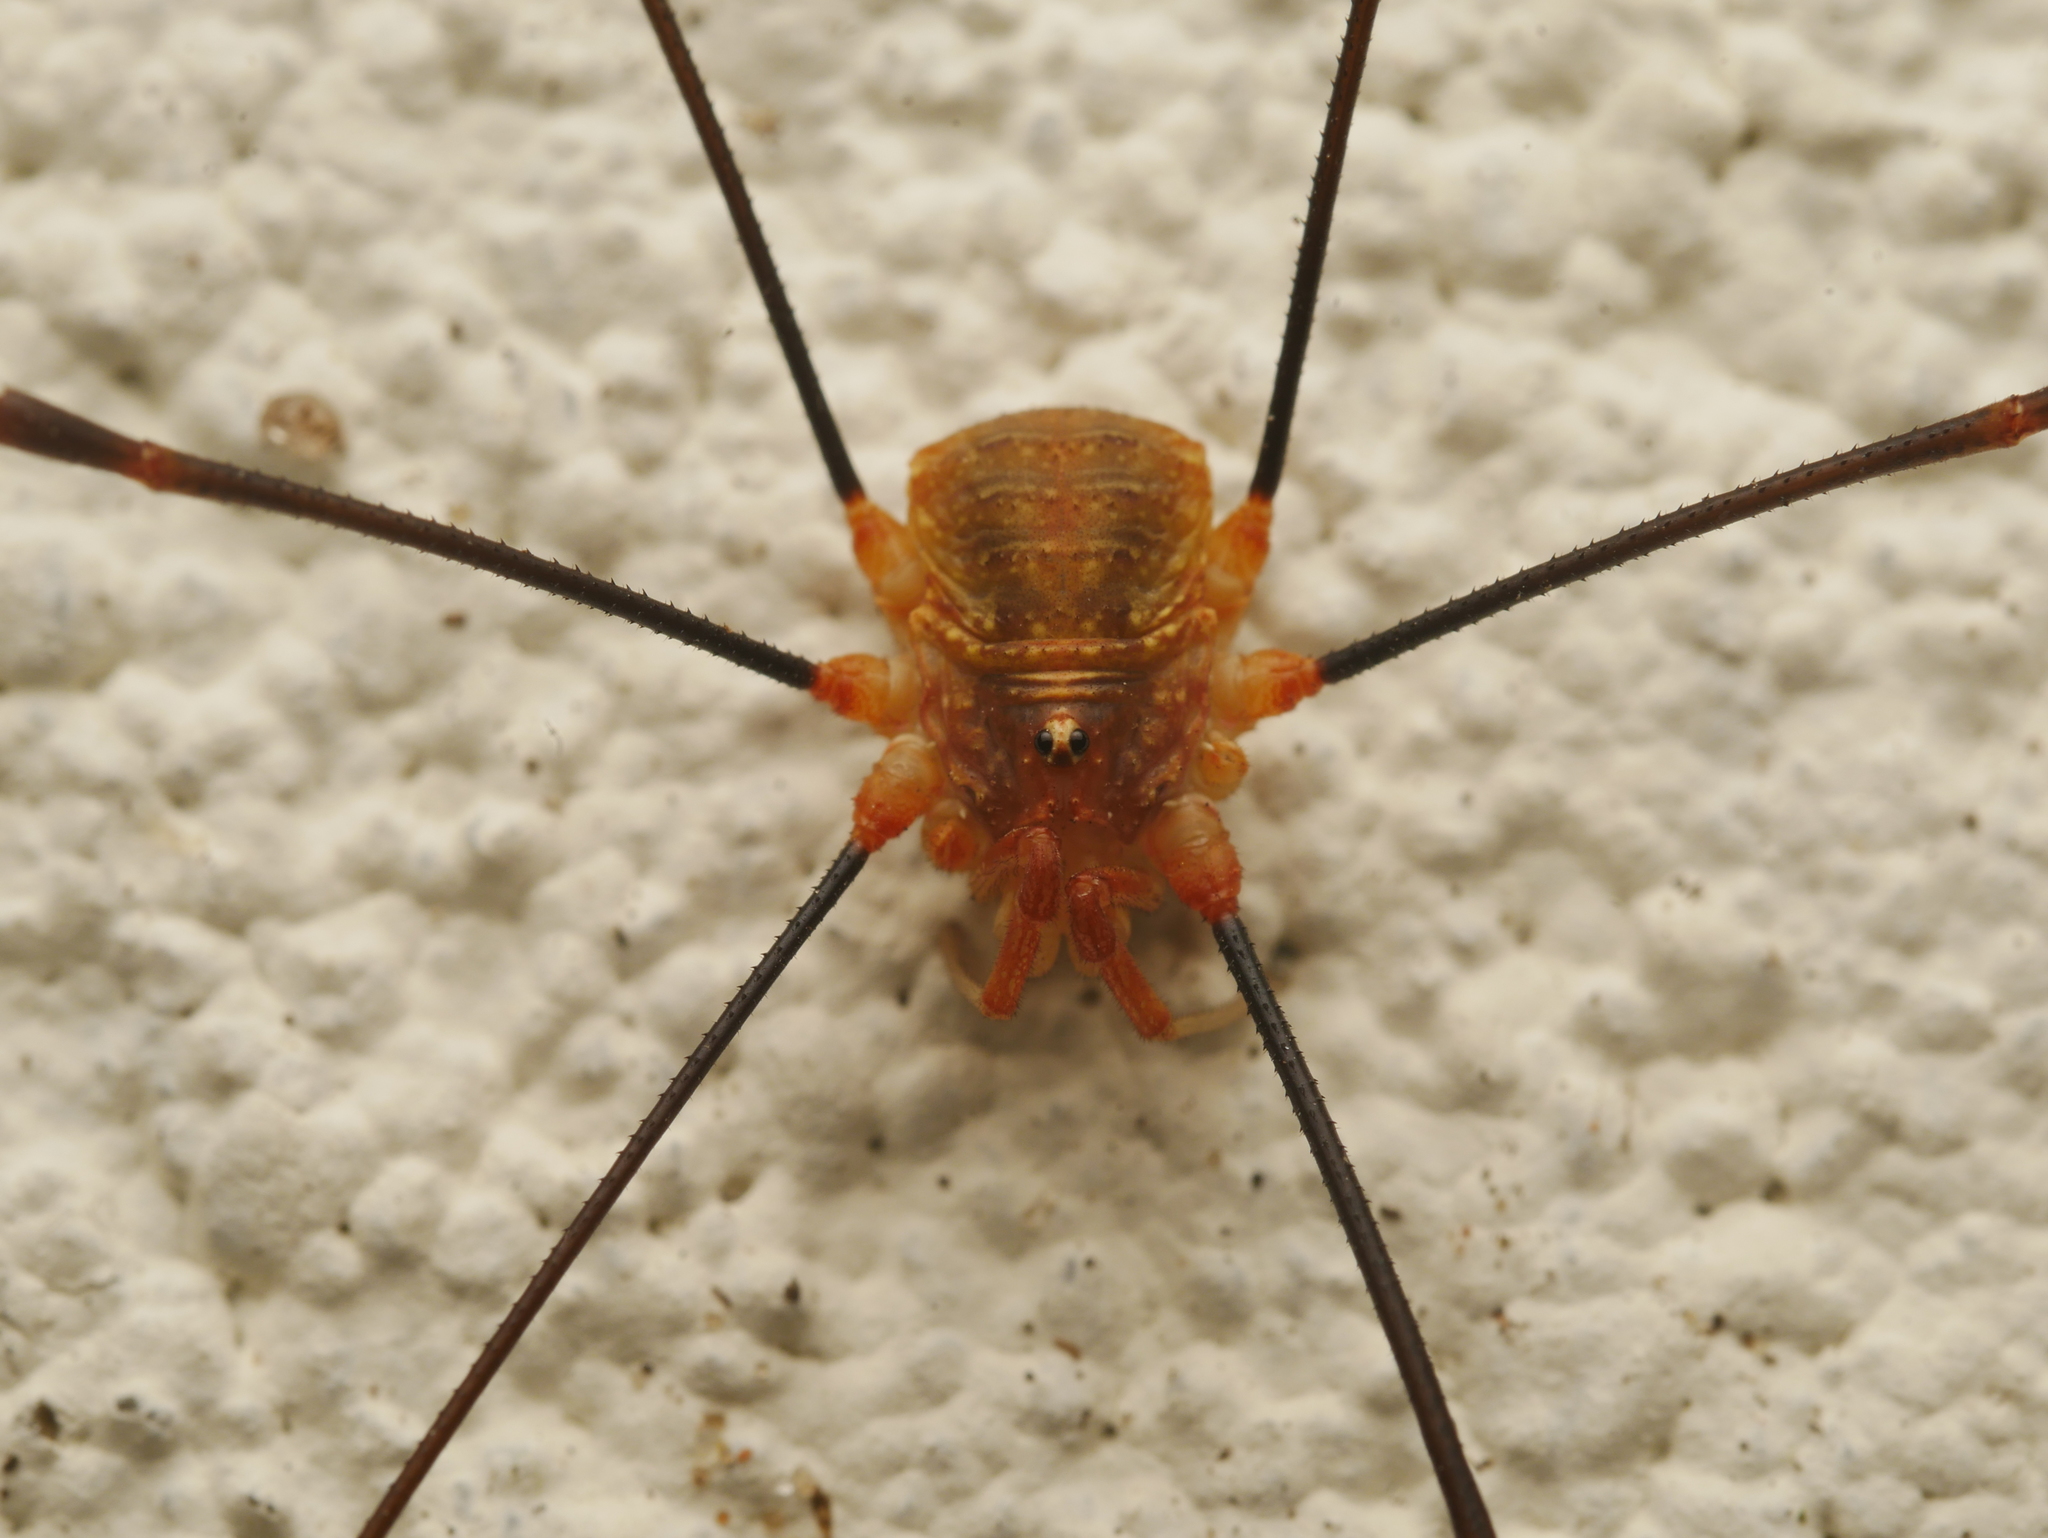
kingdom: Animalia
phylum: Arthropoda
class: Arachnida
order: Opiliones
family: Phalangiidae
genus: Opilio
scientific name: Opilio canestrinii
